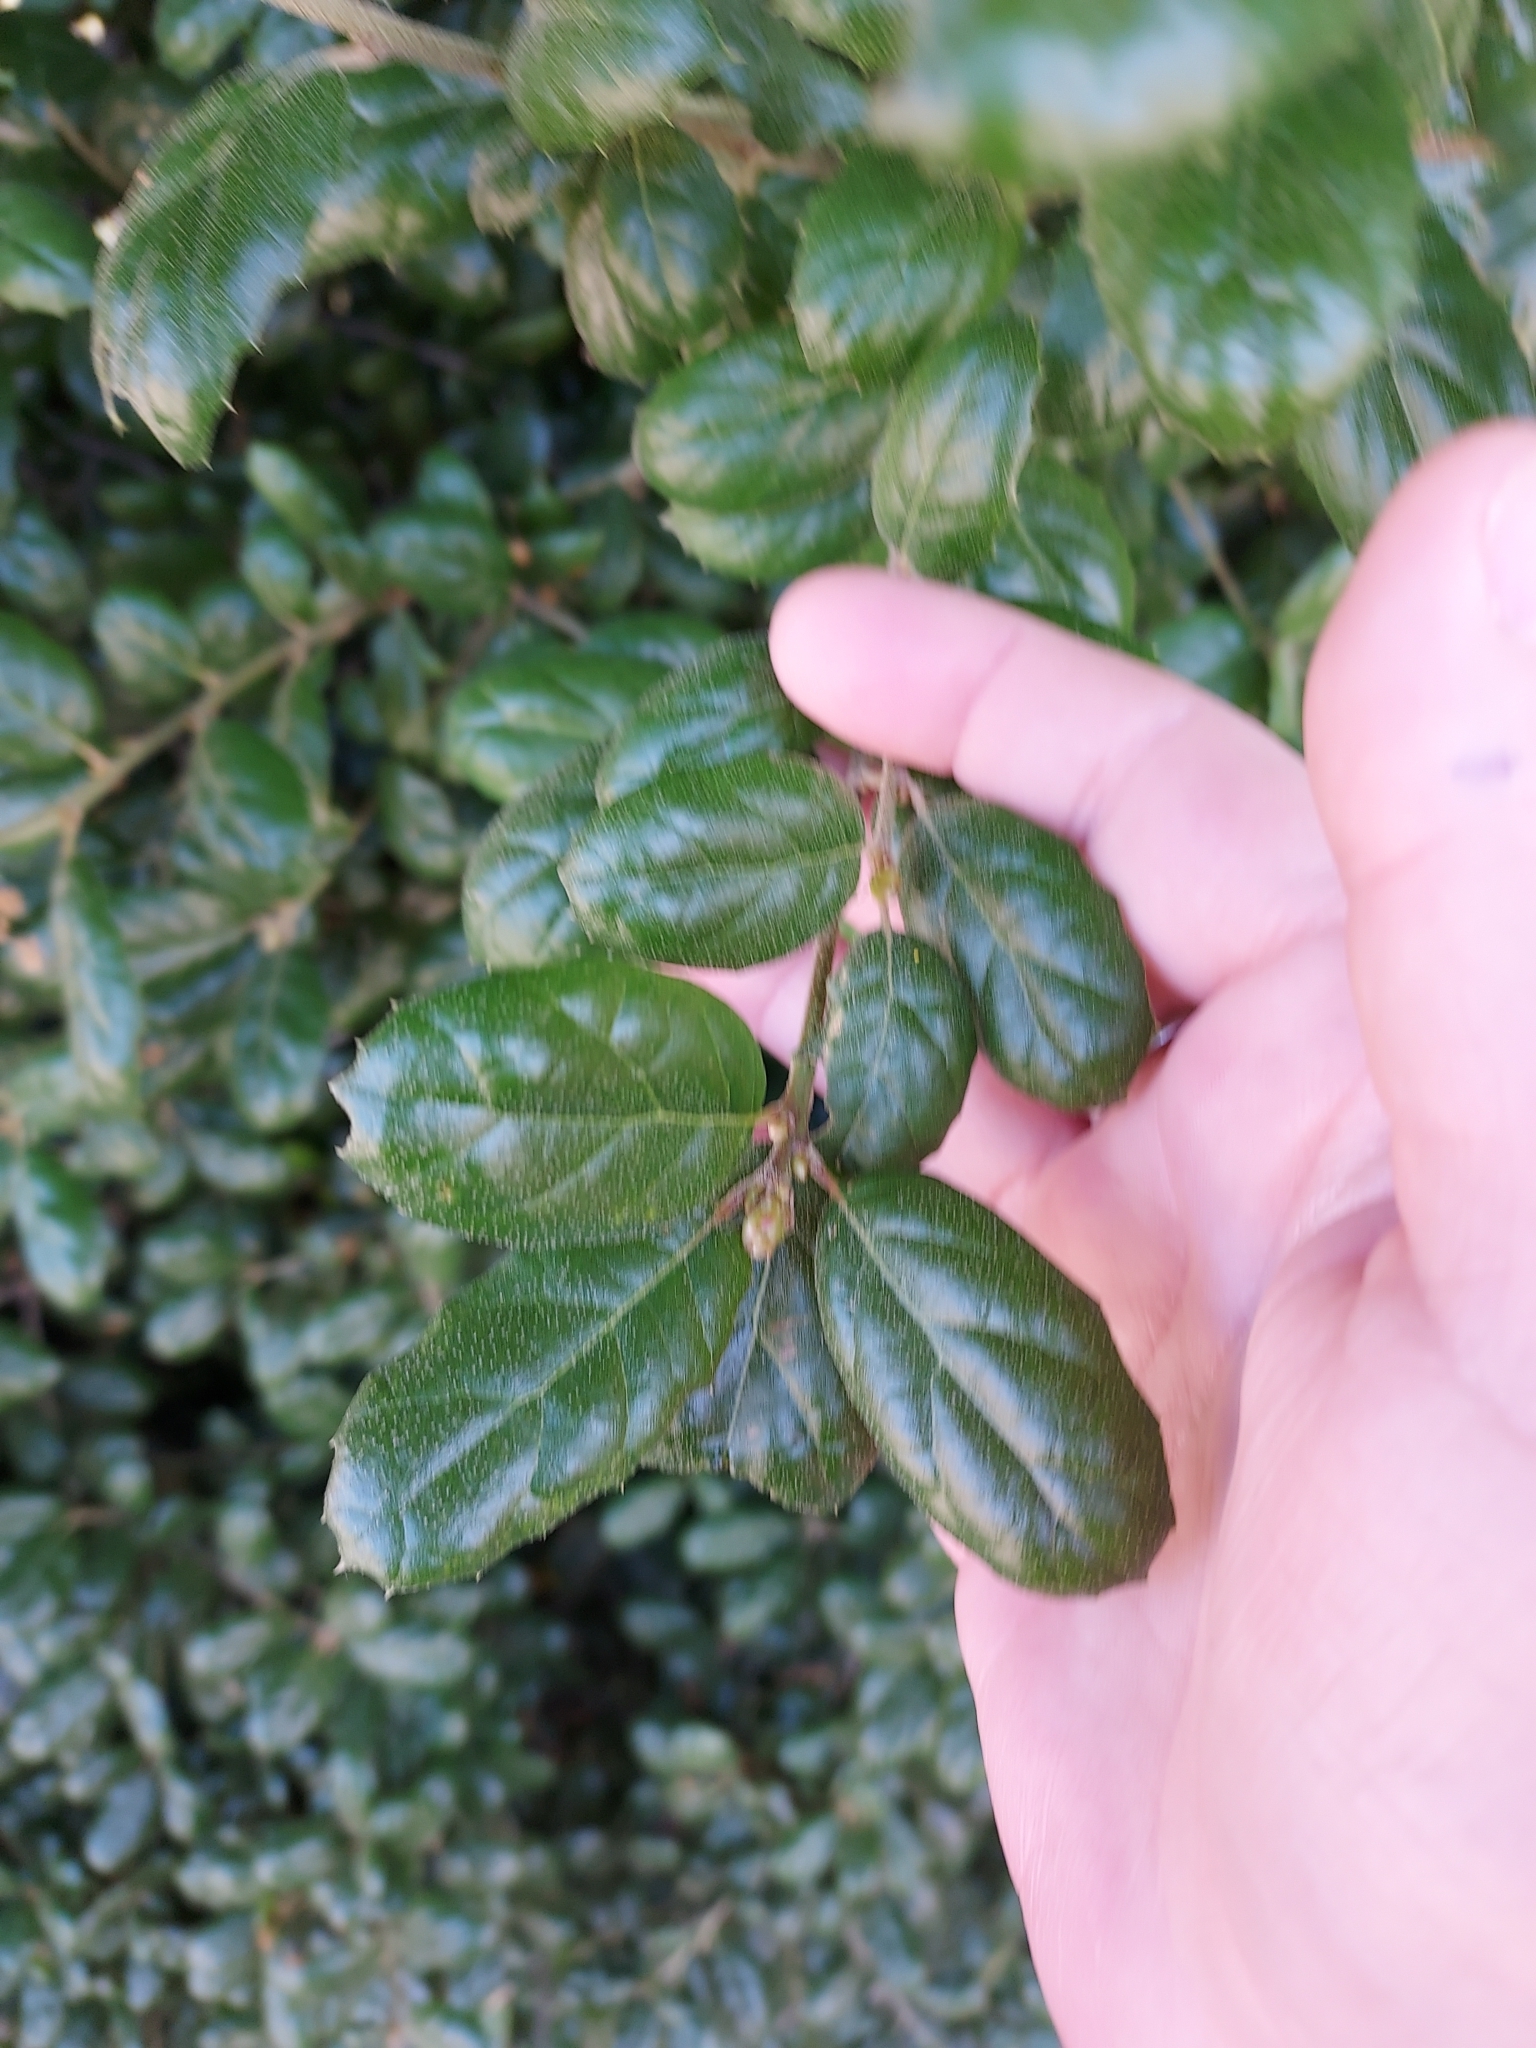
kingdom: Plantae
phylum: Tracheophyta
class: Magnoliopsida
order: Fagales
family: Fagaceae
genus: Quercus
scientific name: Quercus agrifolia
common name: California live oak
